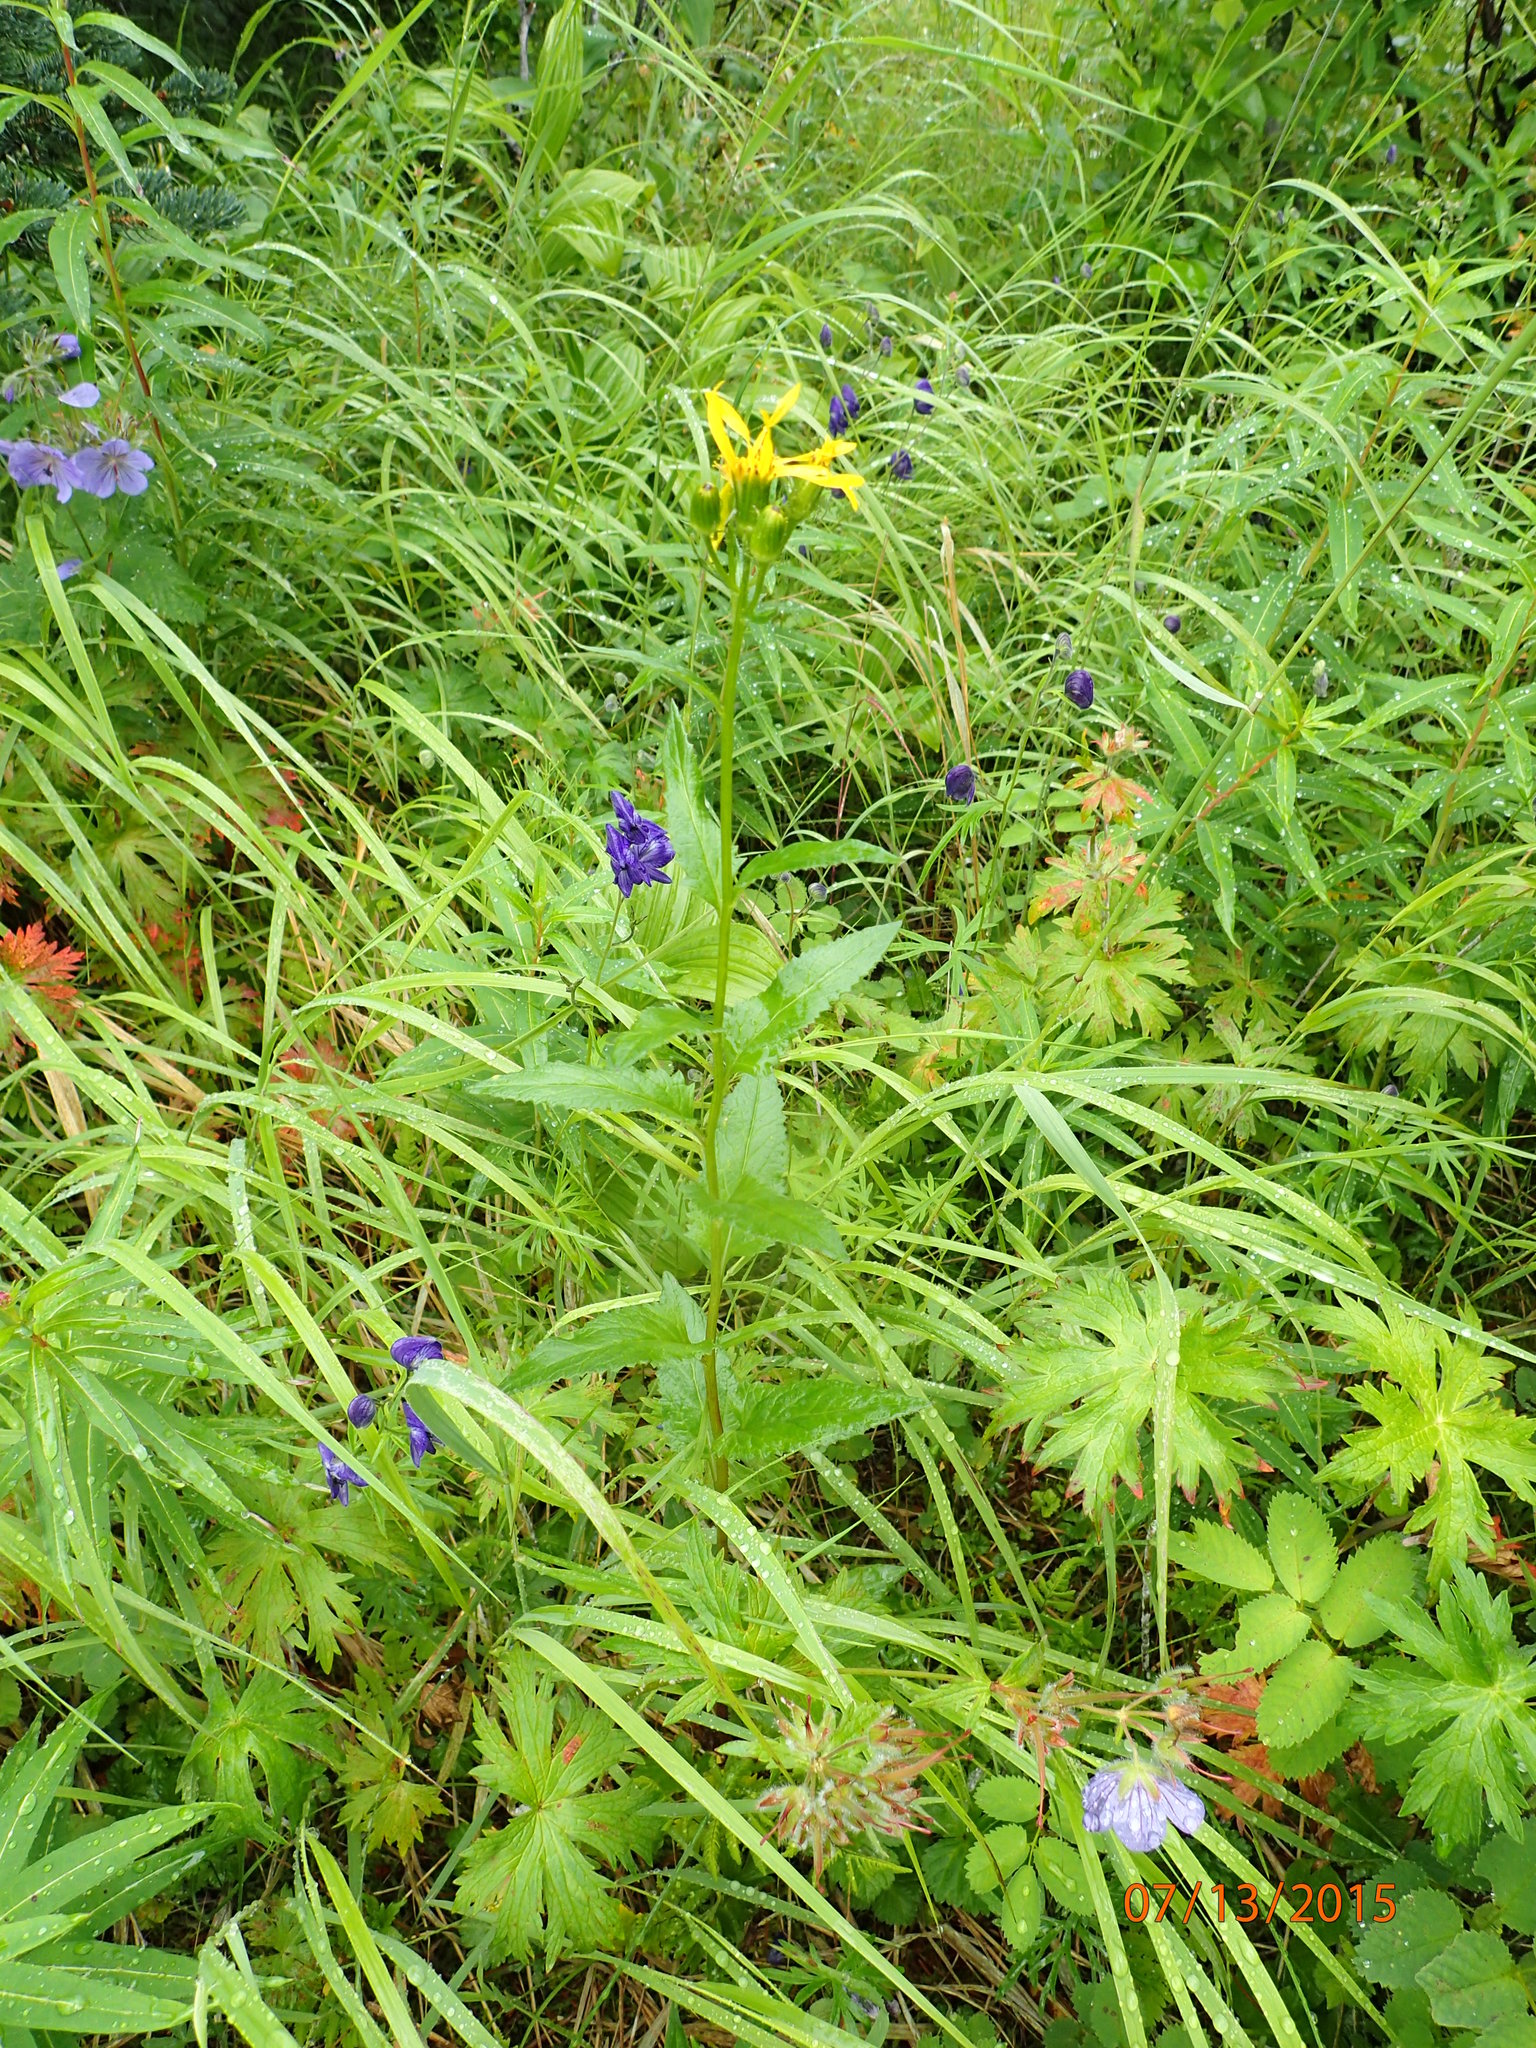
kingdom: Plantae
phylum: Tracheophyta
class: Magnoliopsida
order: Asterales
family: Asteraceae
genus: Senecio
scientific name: Senecio triangularis
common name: Arrowleaf butterweed
